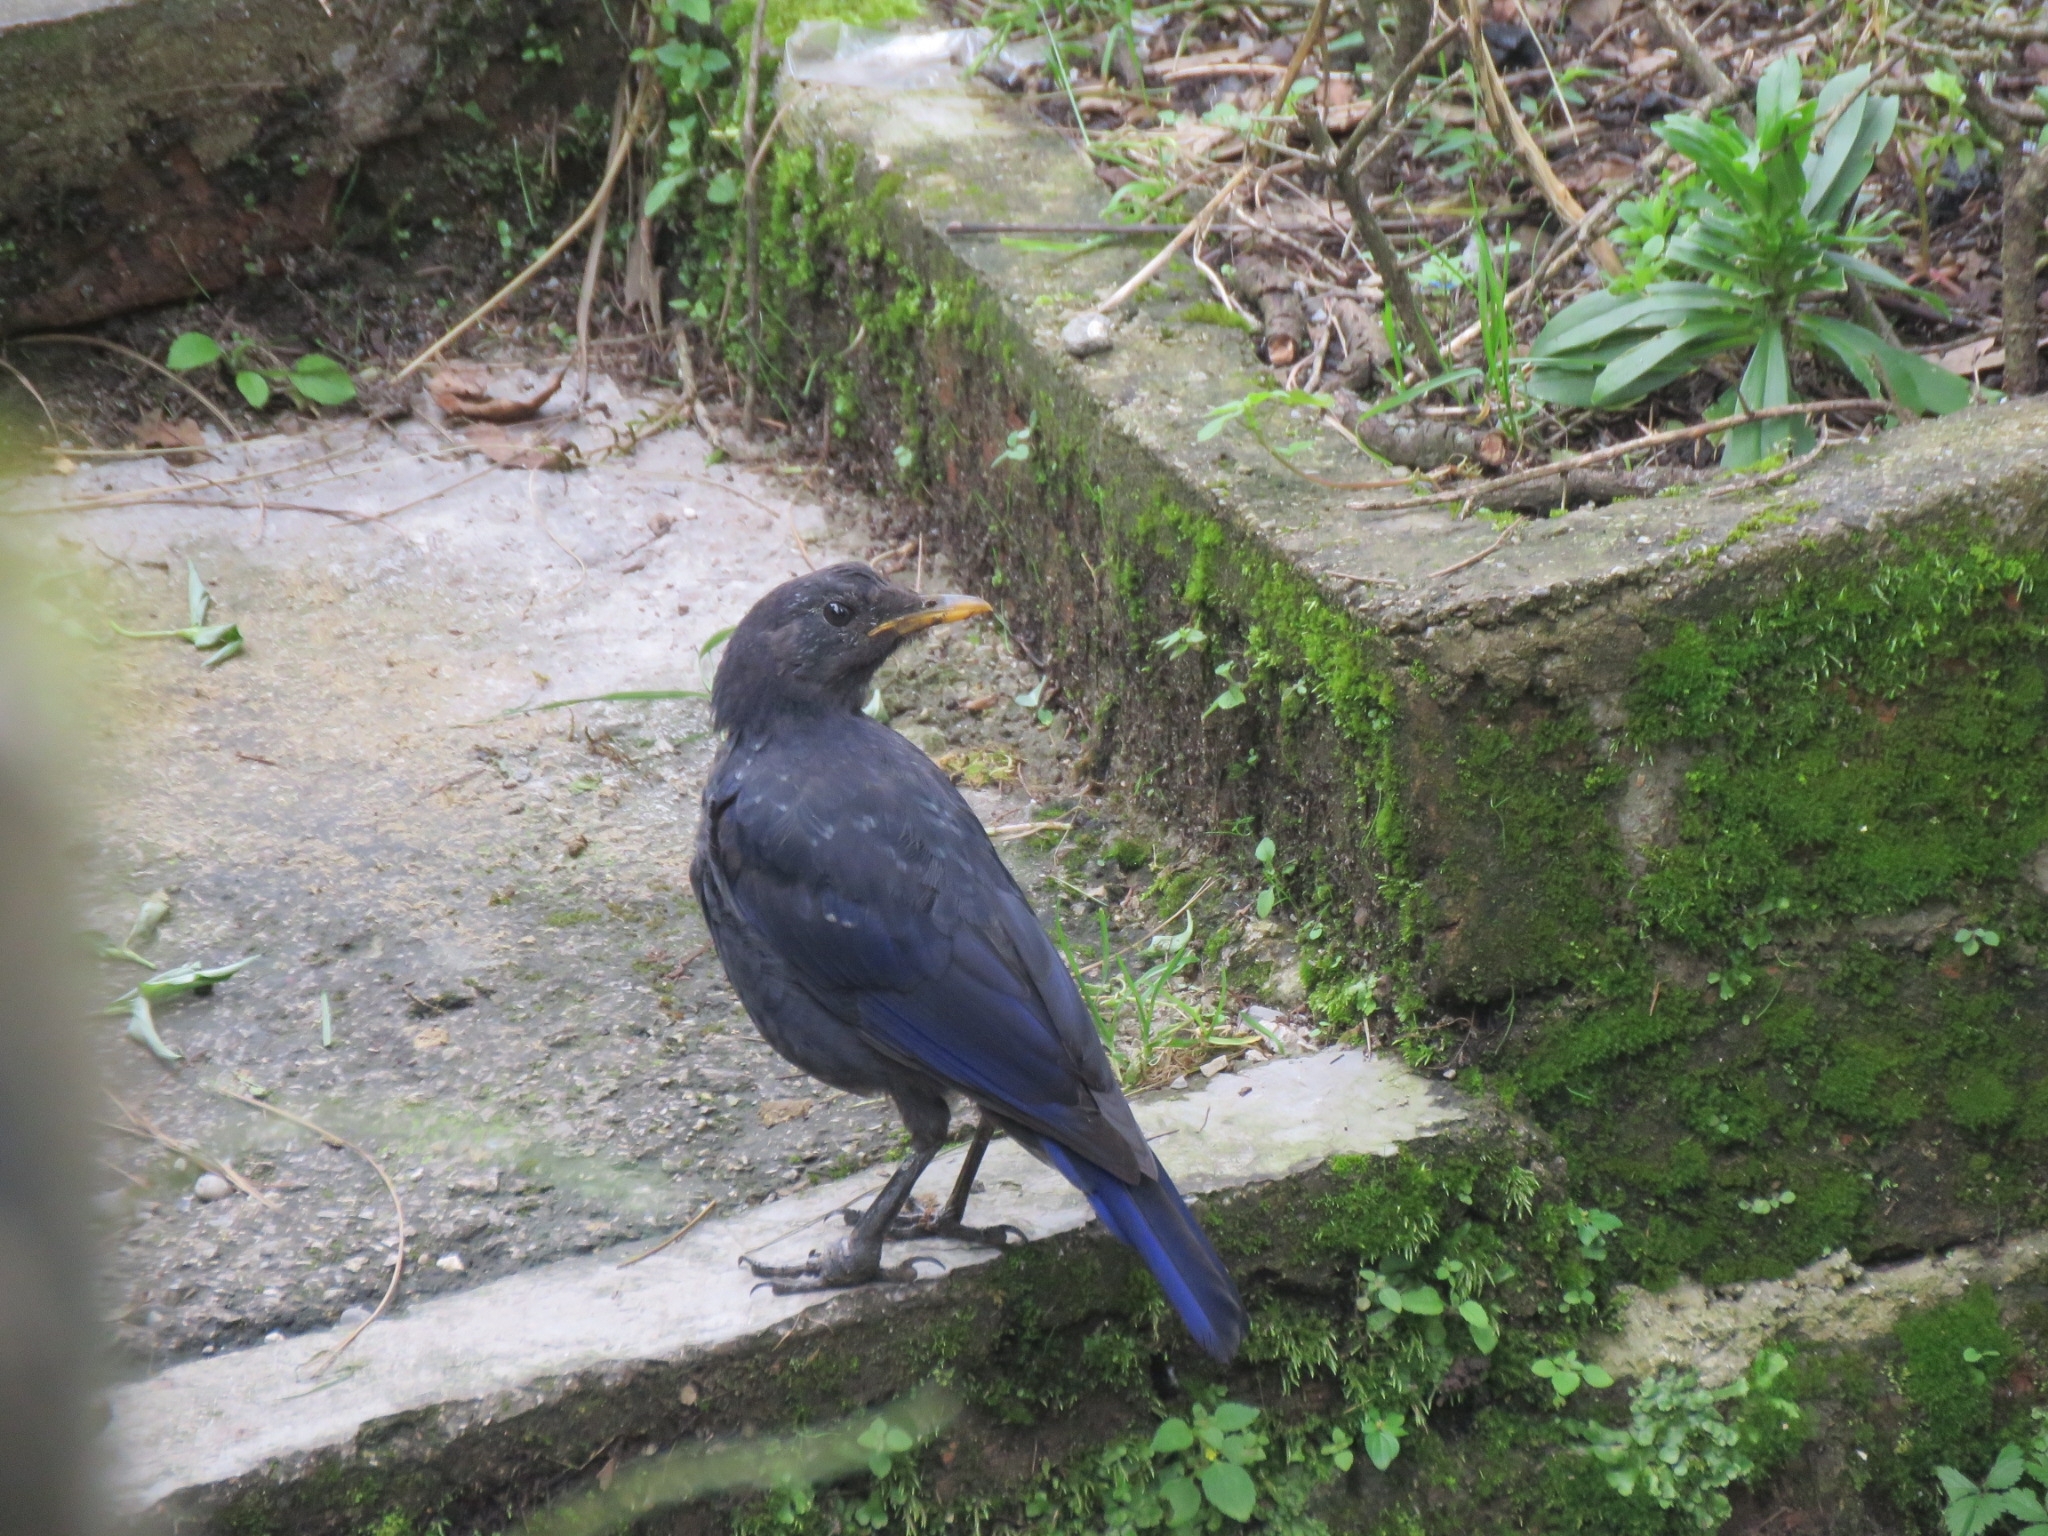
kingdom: Animalia
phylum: Chordata
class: Aves
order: Passeriformes
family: Muscicapidae
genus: Myophonus
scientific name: Myophonus caeruleus
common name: Blue whistling-thrush
